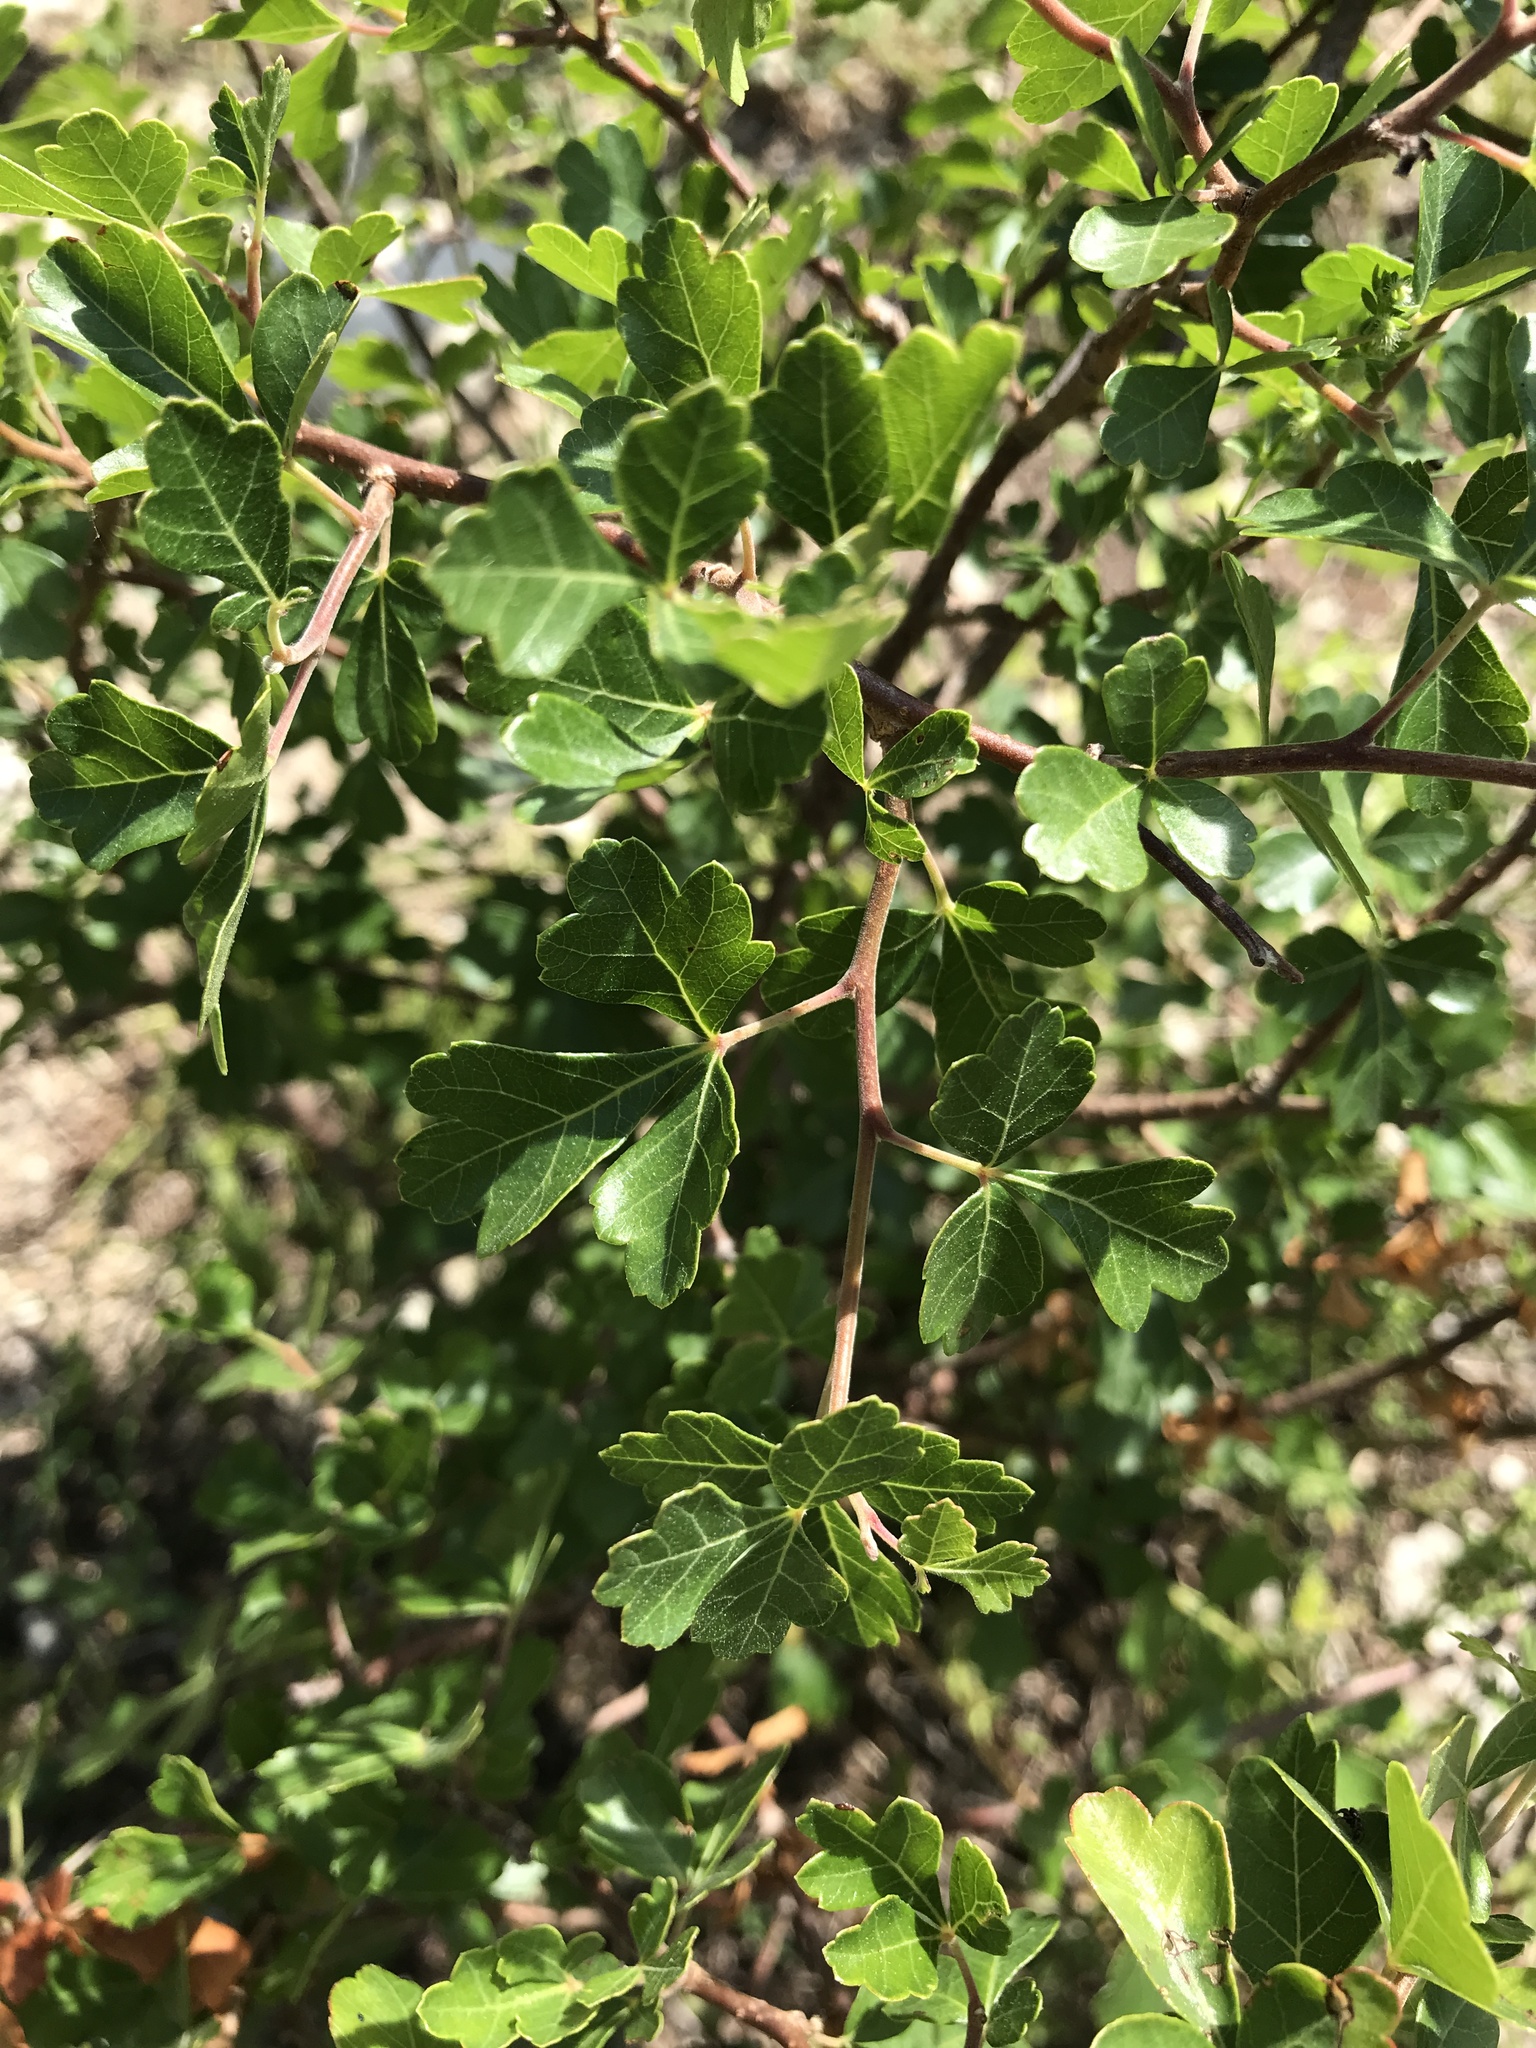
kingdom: Plantae
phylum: Tracheophyta
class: Magnoliopsida
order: Sapindales
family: Anacardiaceae
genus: Rhus
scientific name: Rhus aromatica
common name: Aromatic sumac
